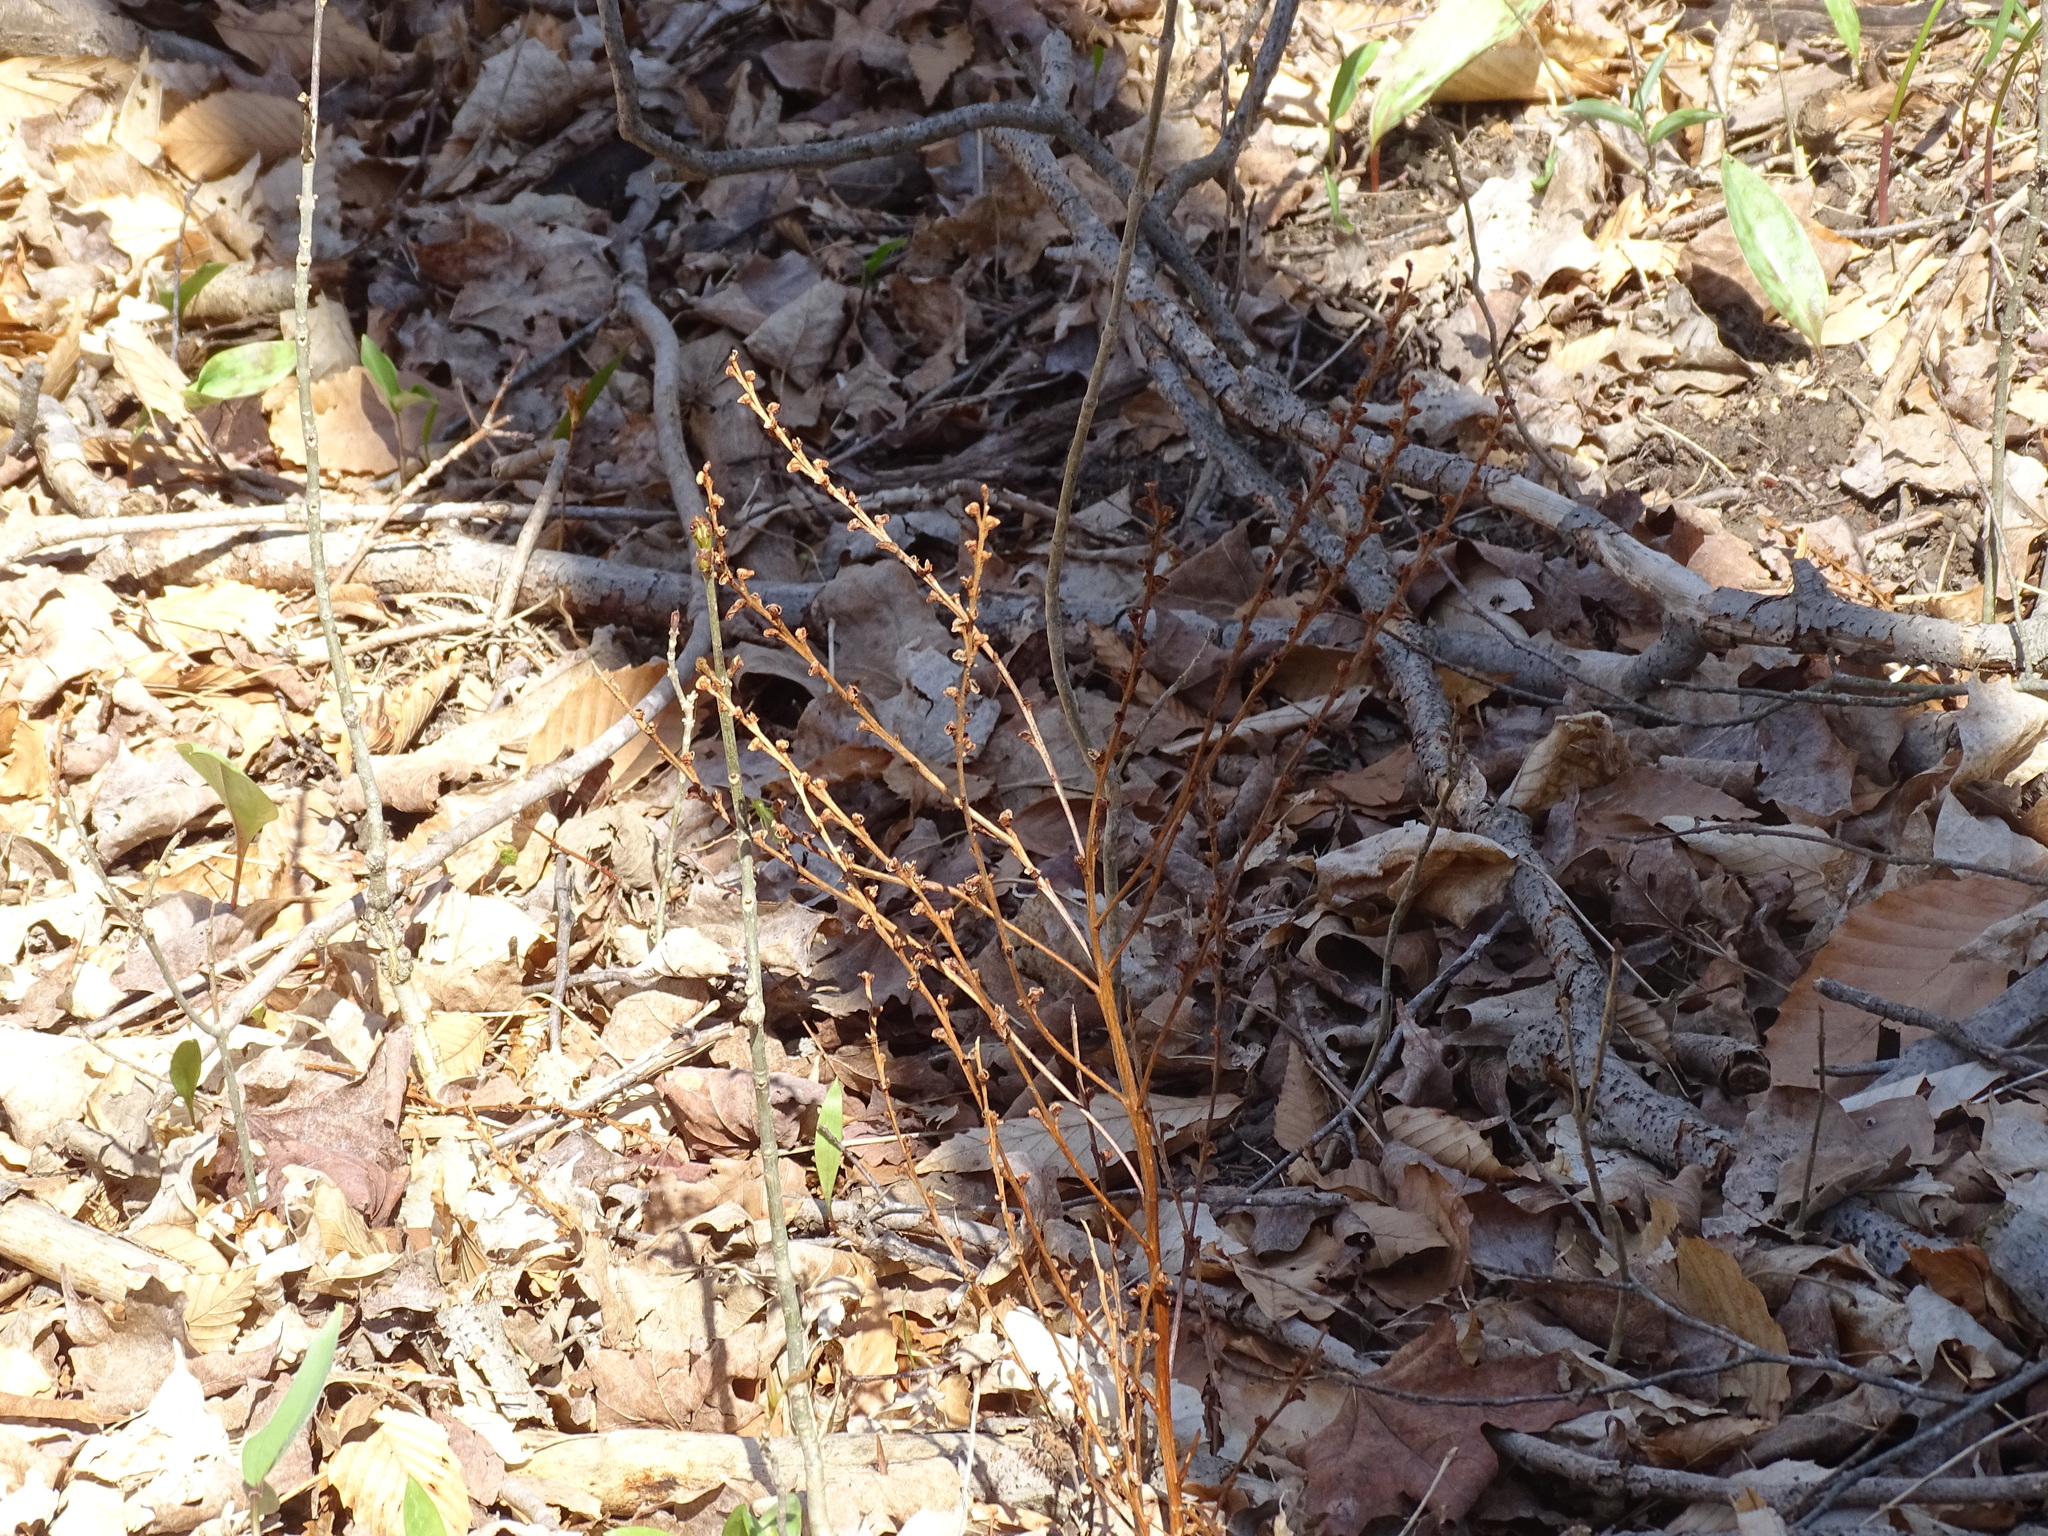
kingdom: Plantae
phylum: Tracheophyta
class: Magnoliopsida
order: Lamiales
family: Orobanchaceae
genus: Epifagus
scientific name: Epifagus virginiana
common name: Beechdrops
